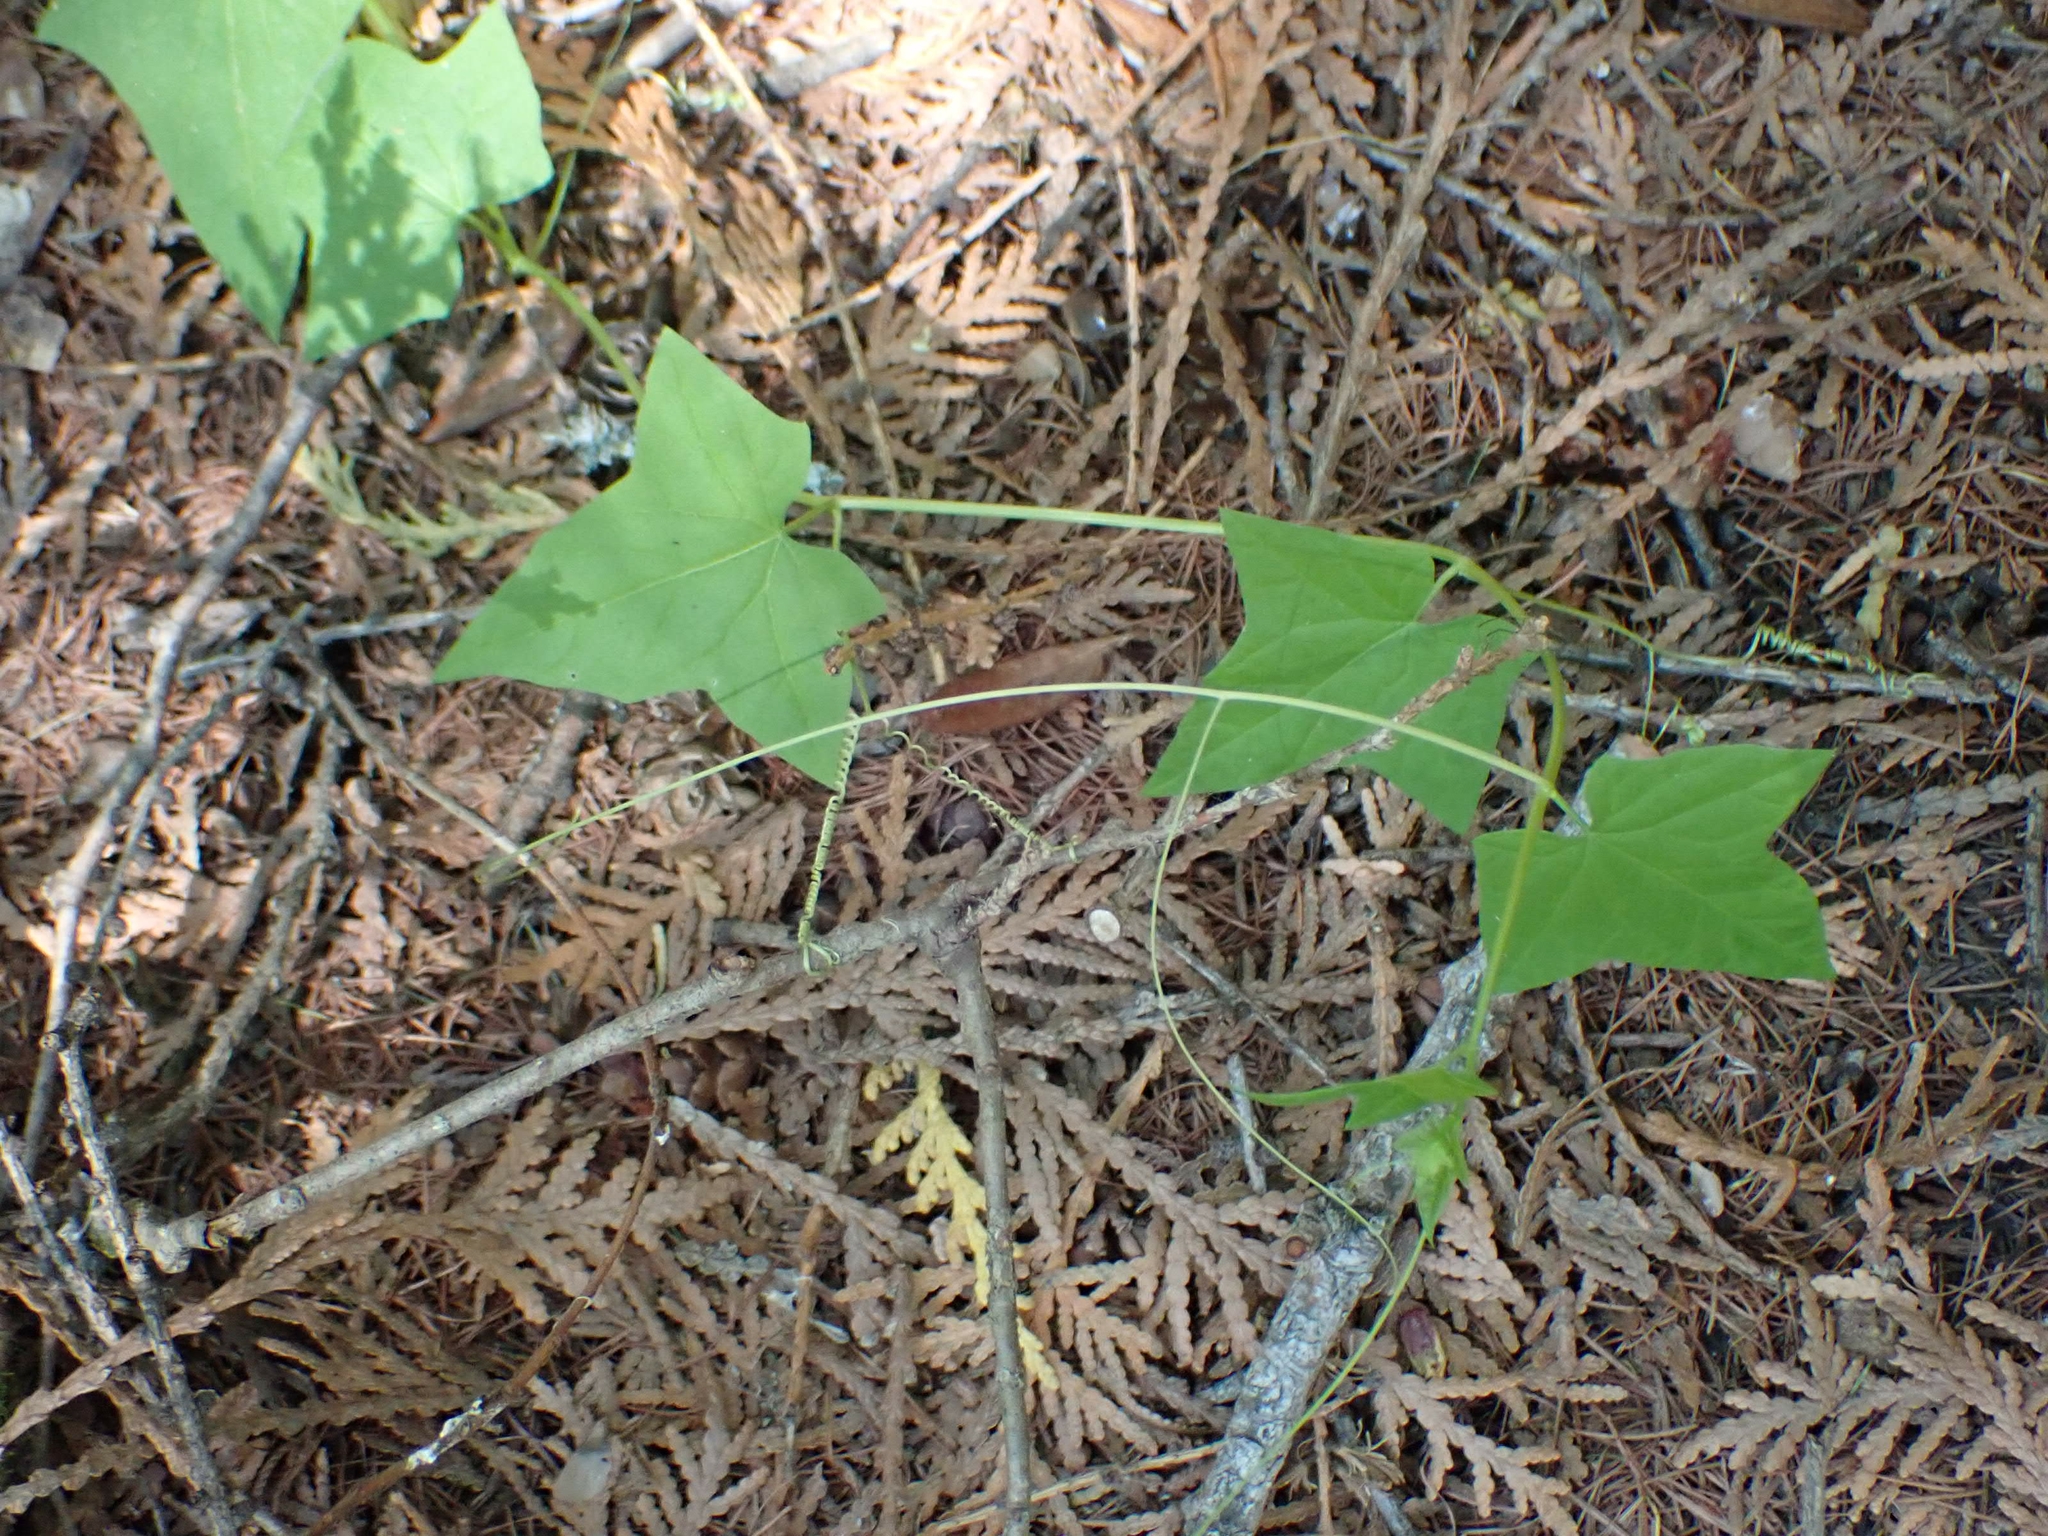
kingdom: Plantae
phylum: Tracheophyta
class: Magnoliopsida
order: Cucurbitales
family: Cucurbitaceae
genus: Echinocystis
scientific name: Echinocystis lobata
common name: Wild cucumber
